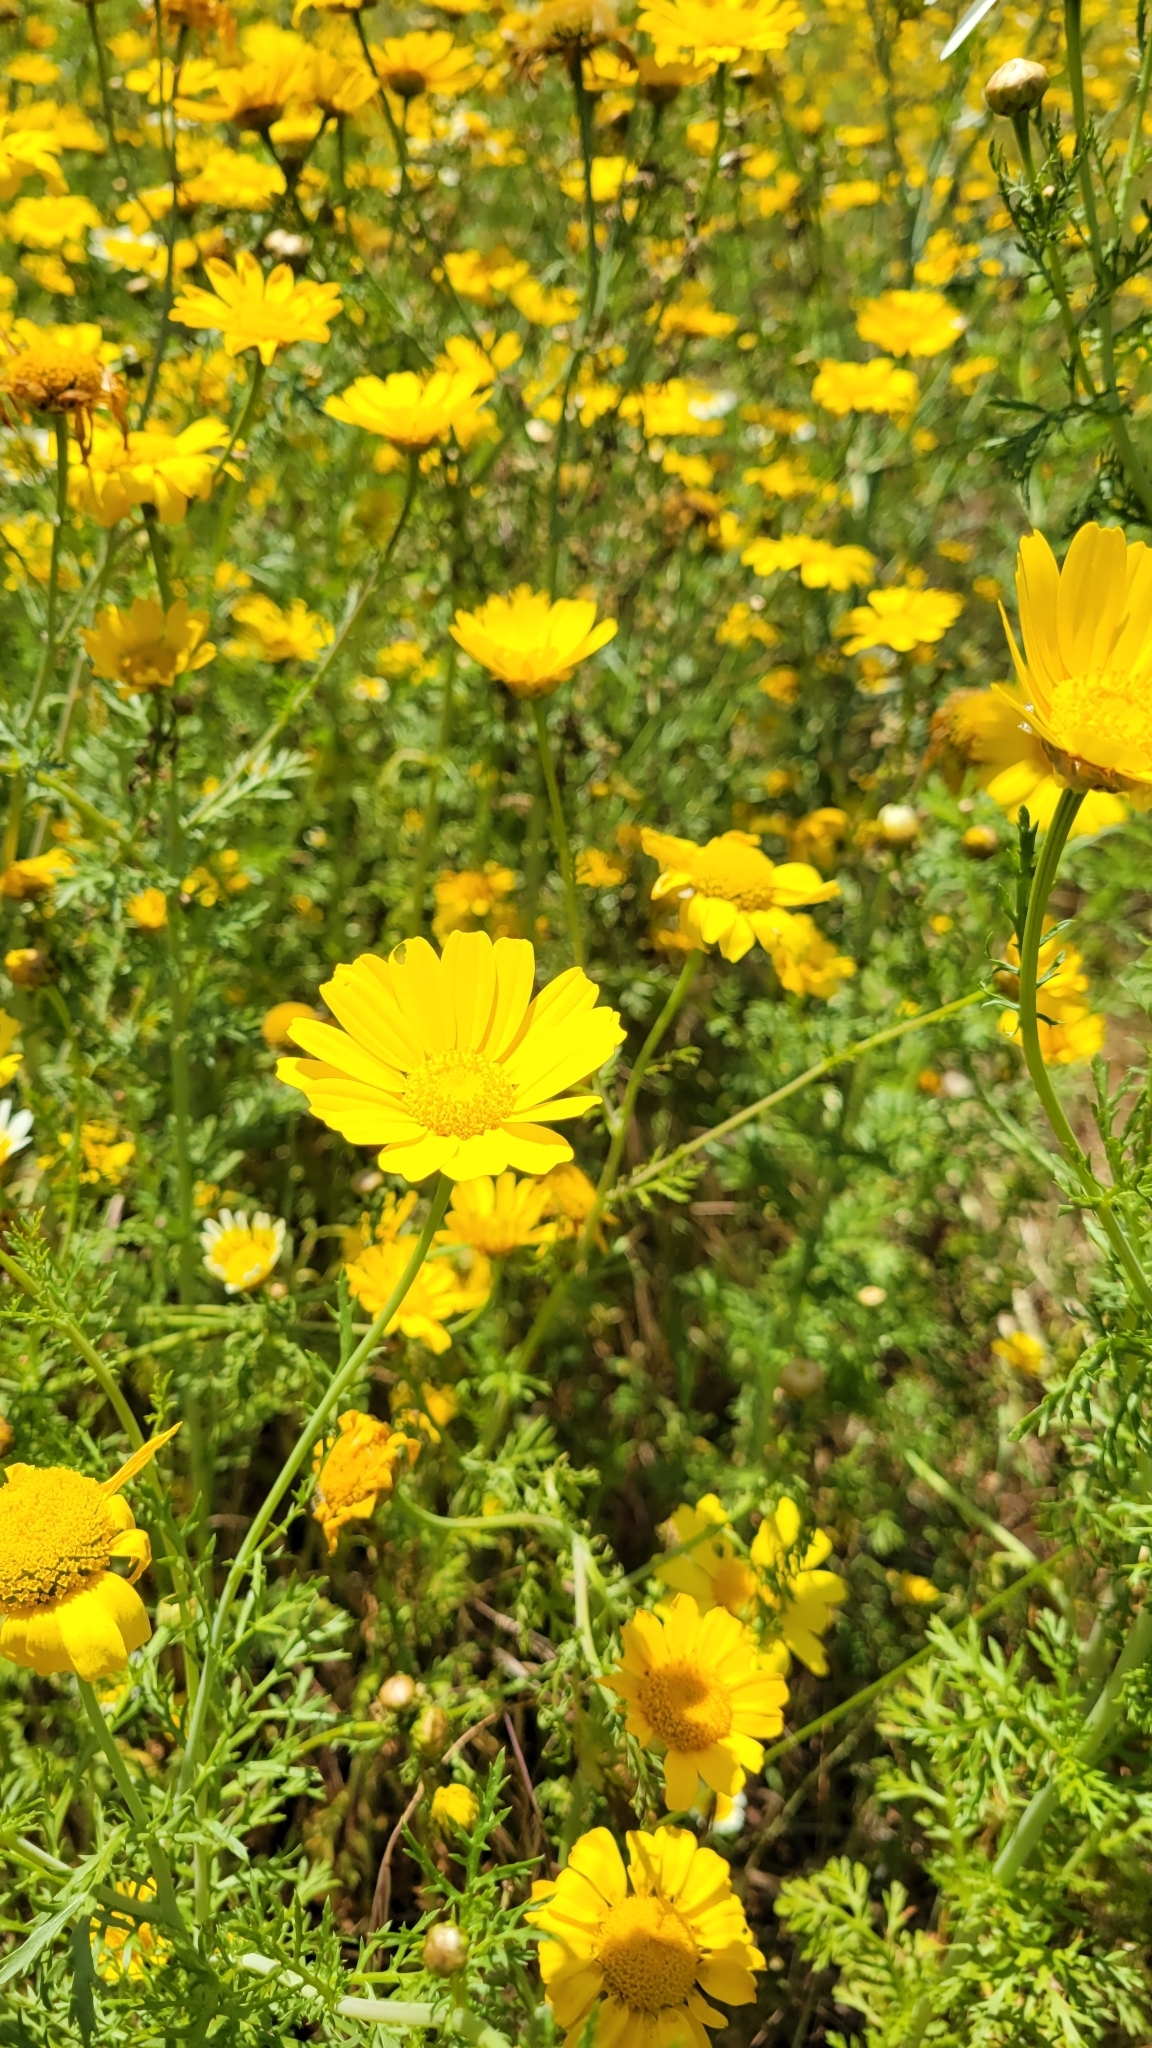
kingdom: Plantae
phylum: Tracheophyta
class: Magnoliopsida
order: Asterales
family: Asteraceae
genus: Glebionis
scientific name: Glebionis coronaria
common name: Crowndaisy
